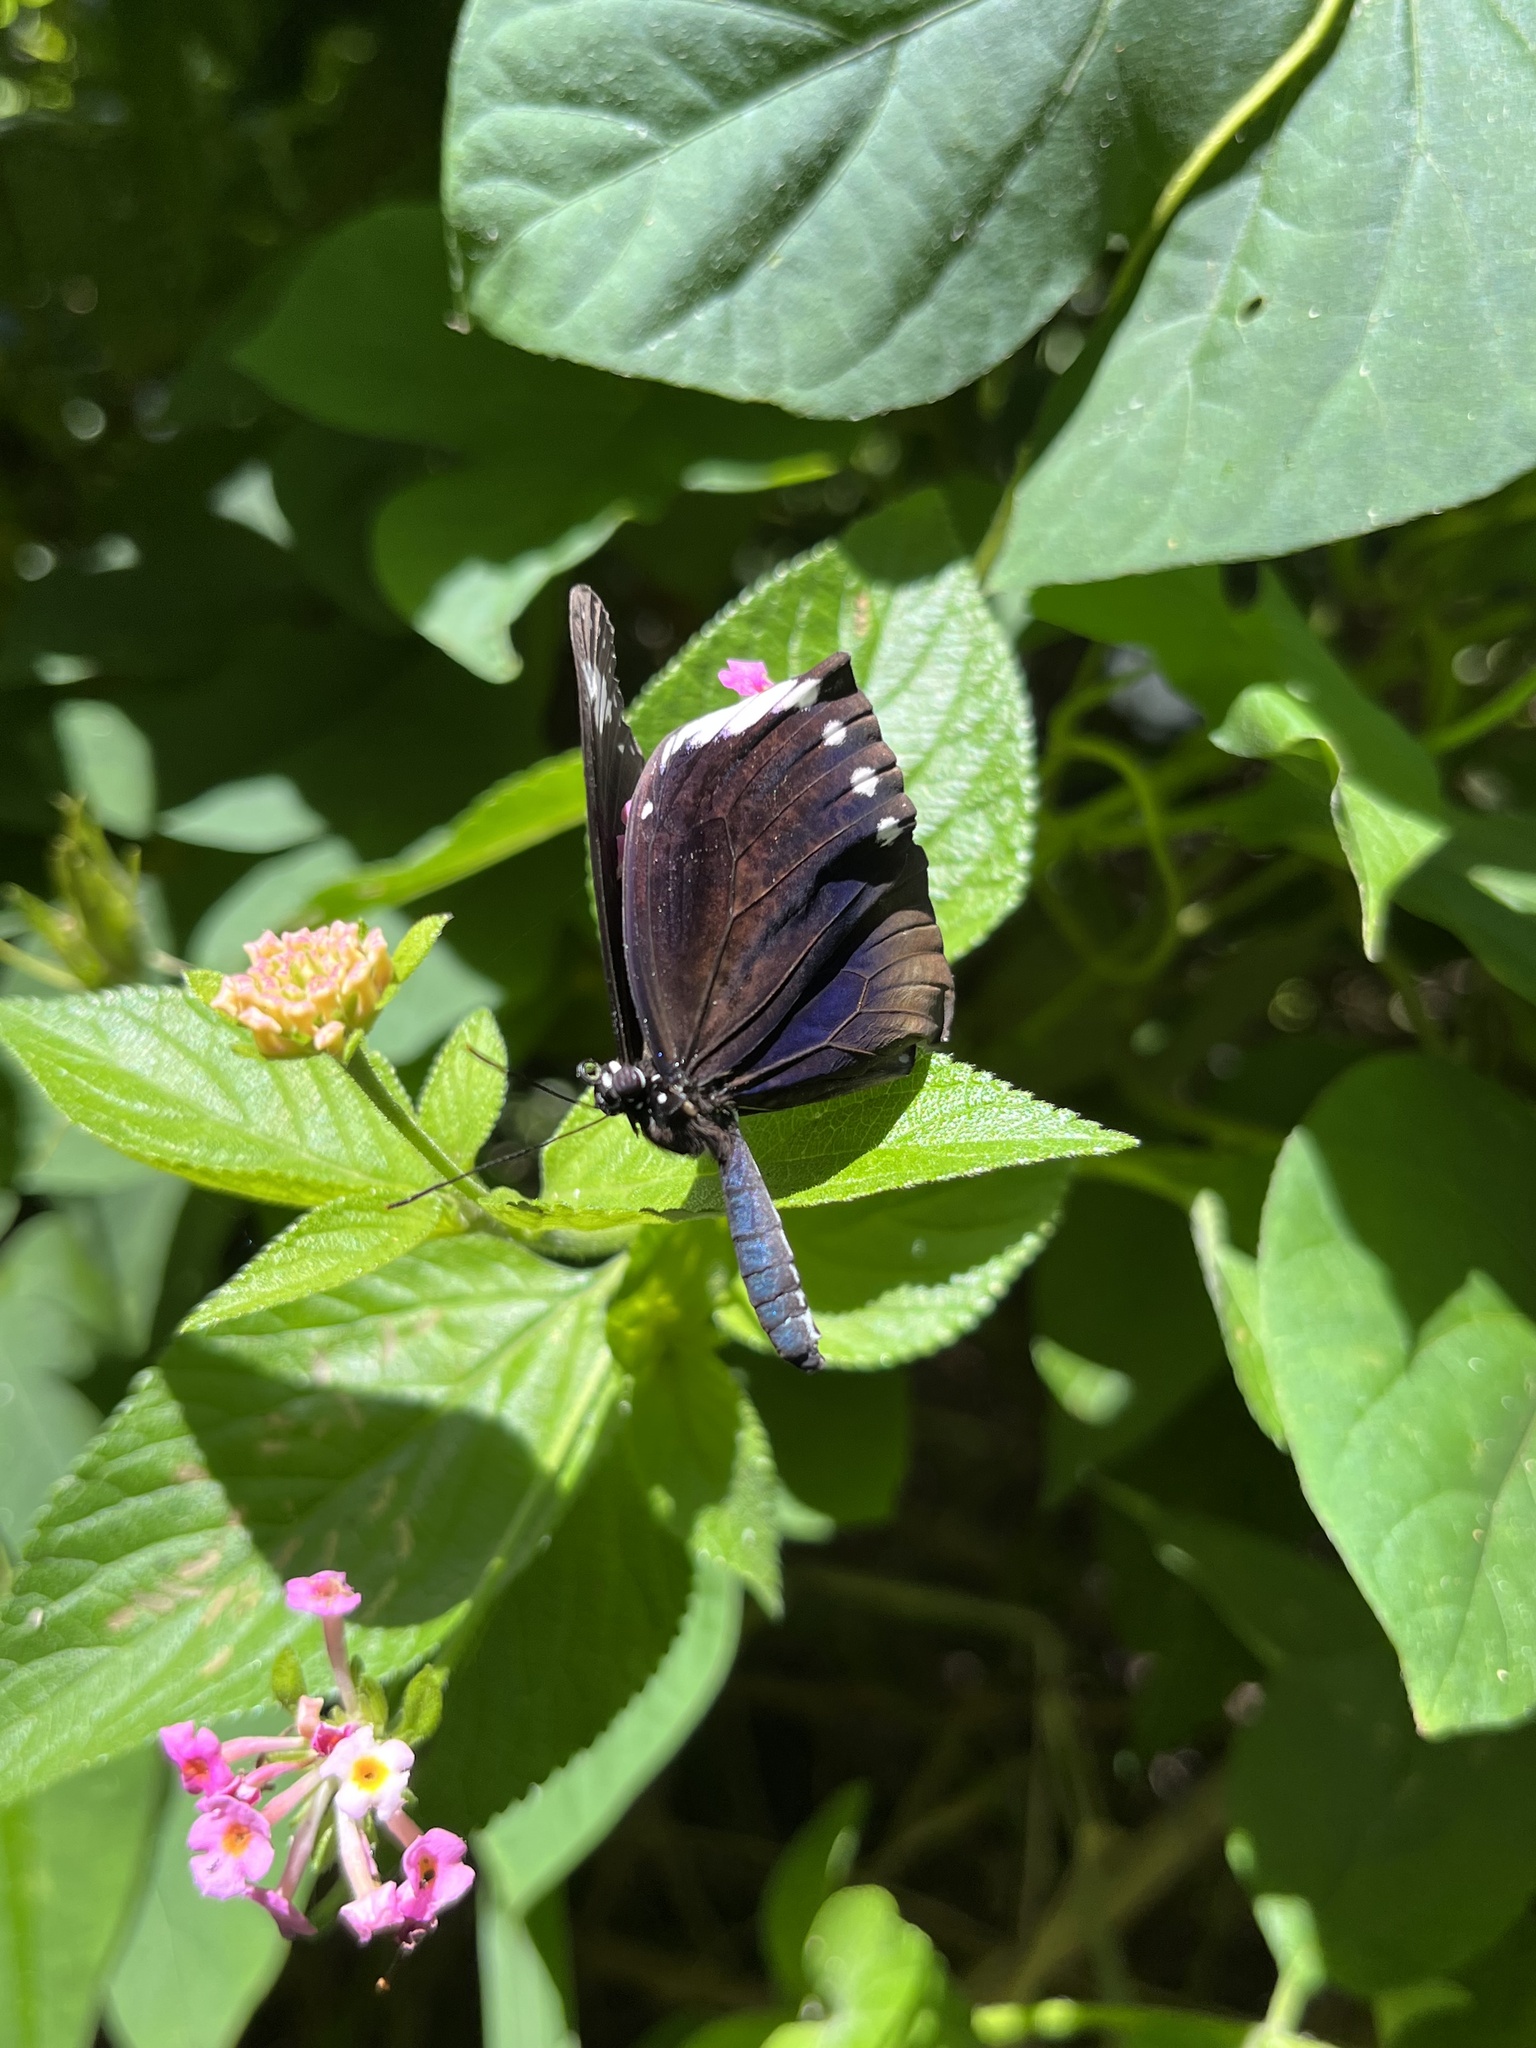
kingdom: Animalia
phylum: Arthropoda
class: Insecta
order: Lepidoptera
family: Nymphalidae
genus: Euploea
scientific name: Euploea tulliolus
